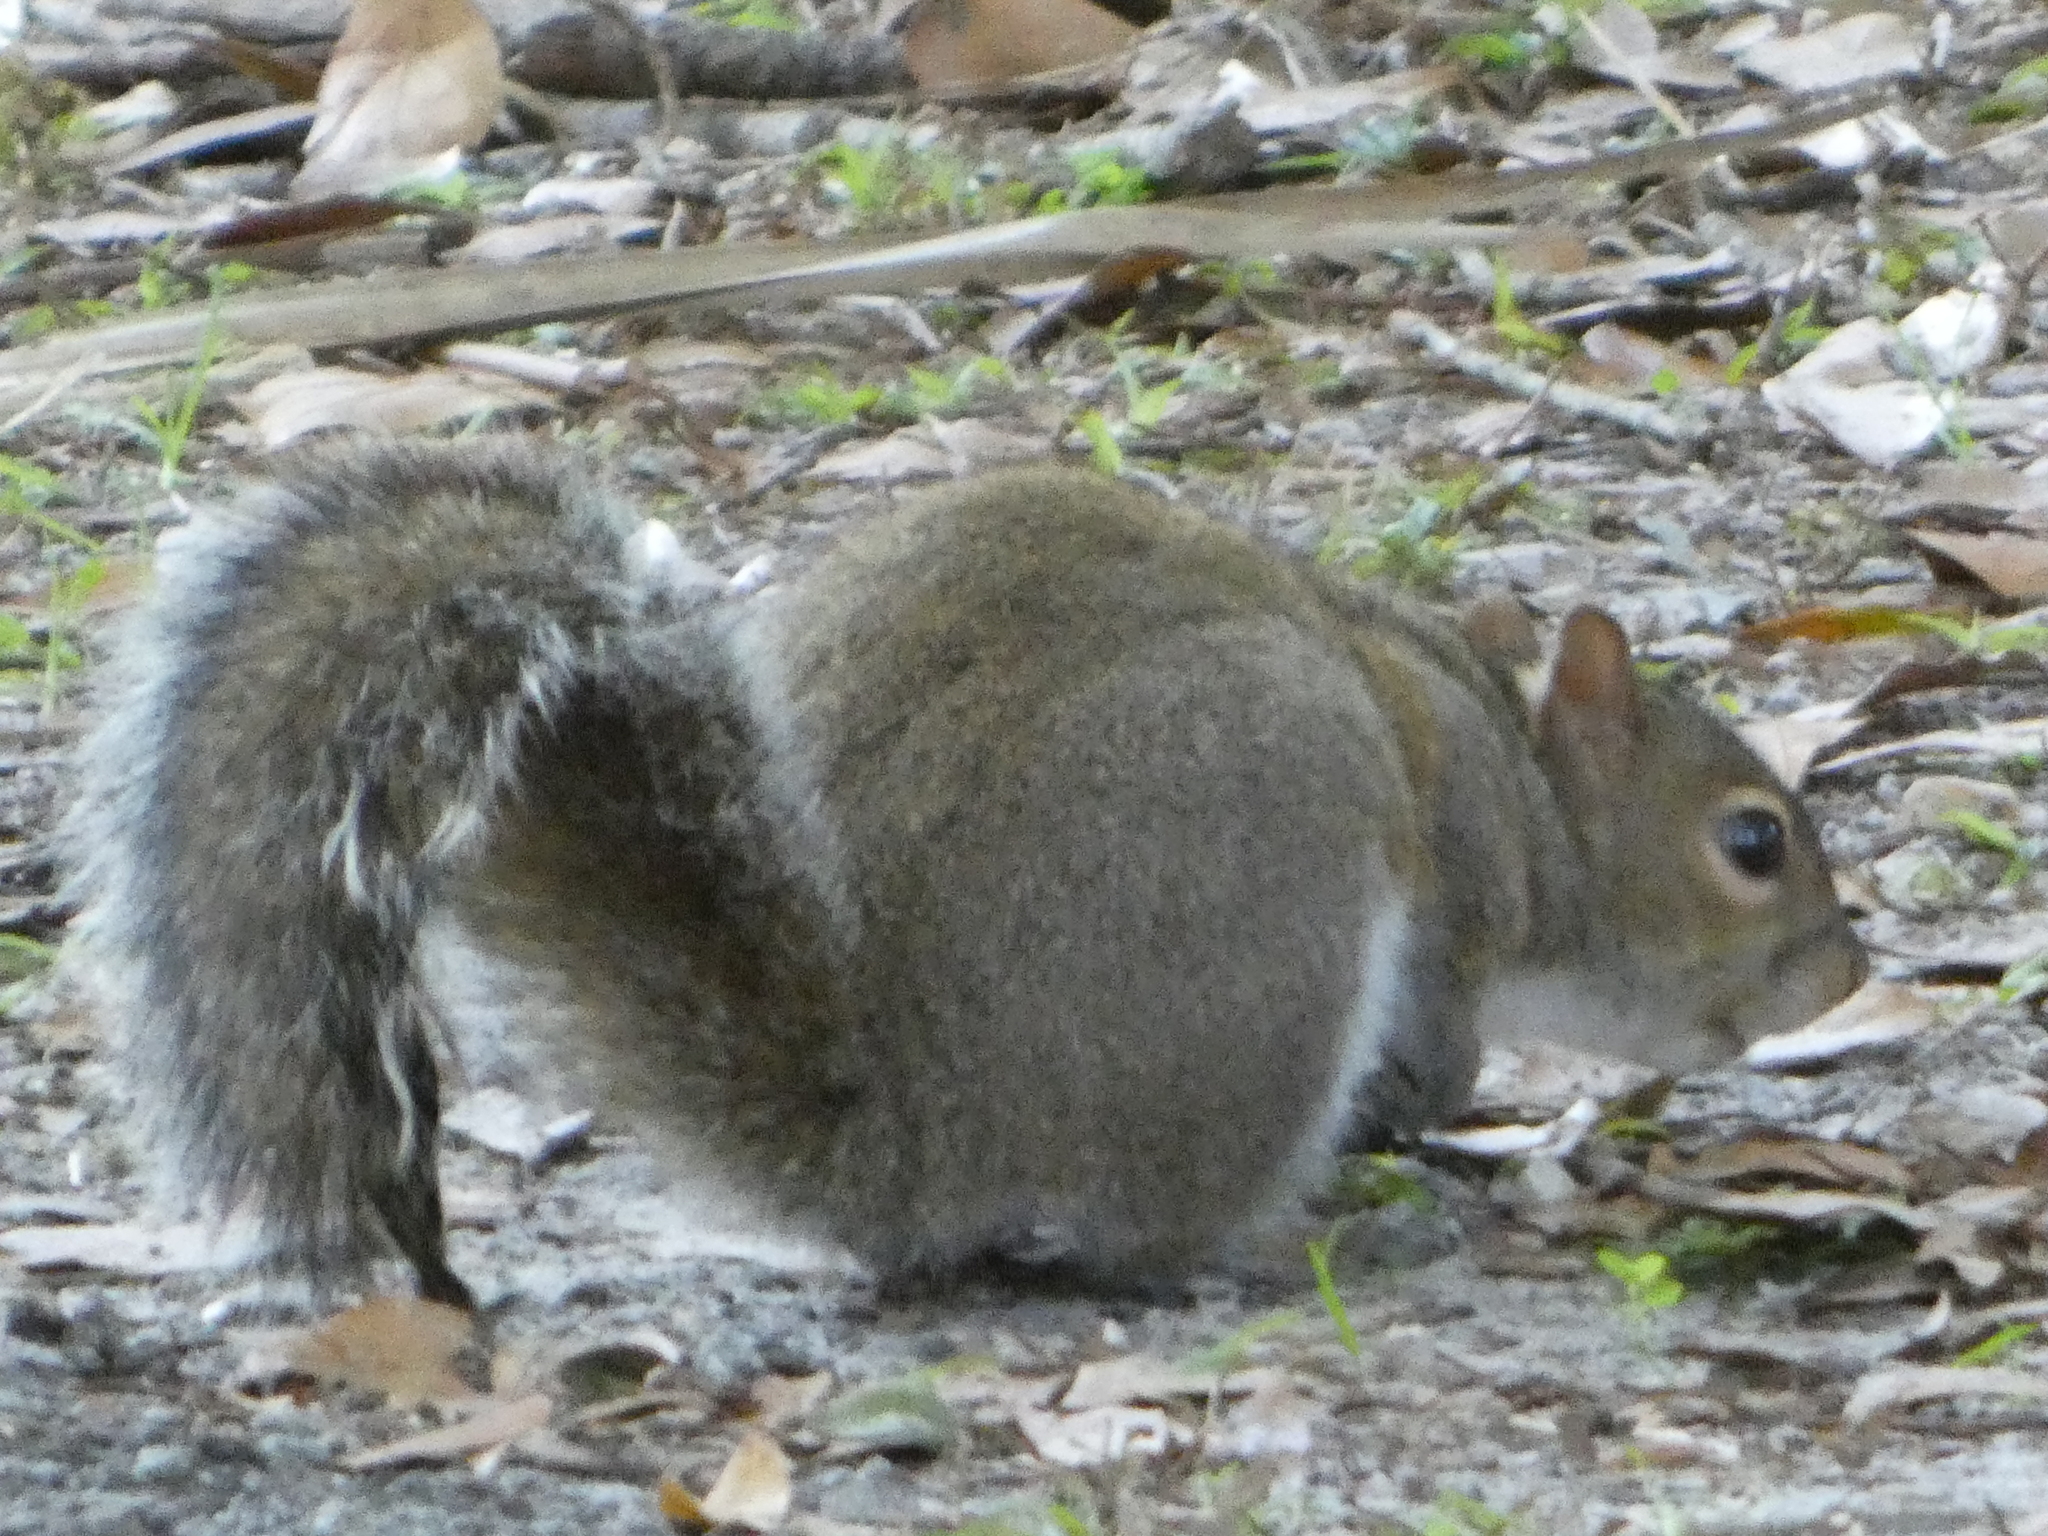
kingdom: Animalia
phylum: Chordata
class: Mammalia
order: Rodentia
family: Sciuridae
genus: Sciurus
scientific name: Sciurus carolinensis
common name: Eastern gray squirrel
